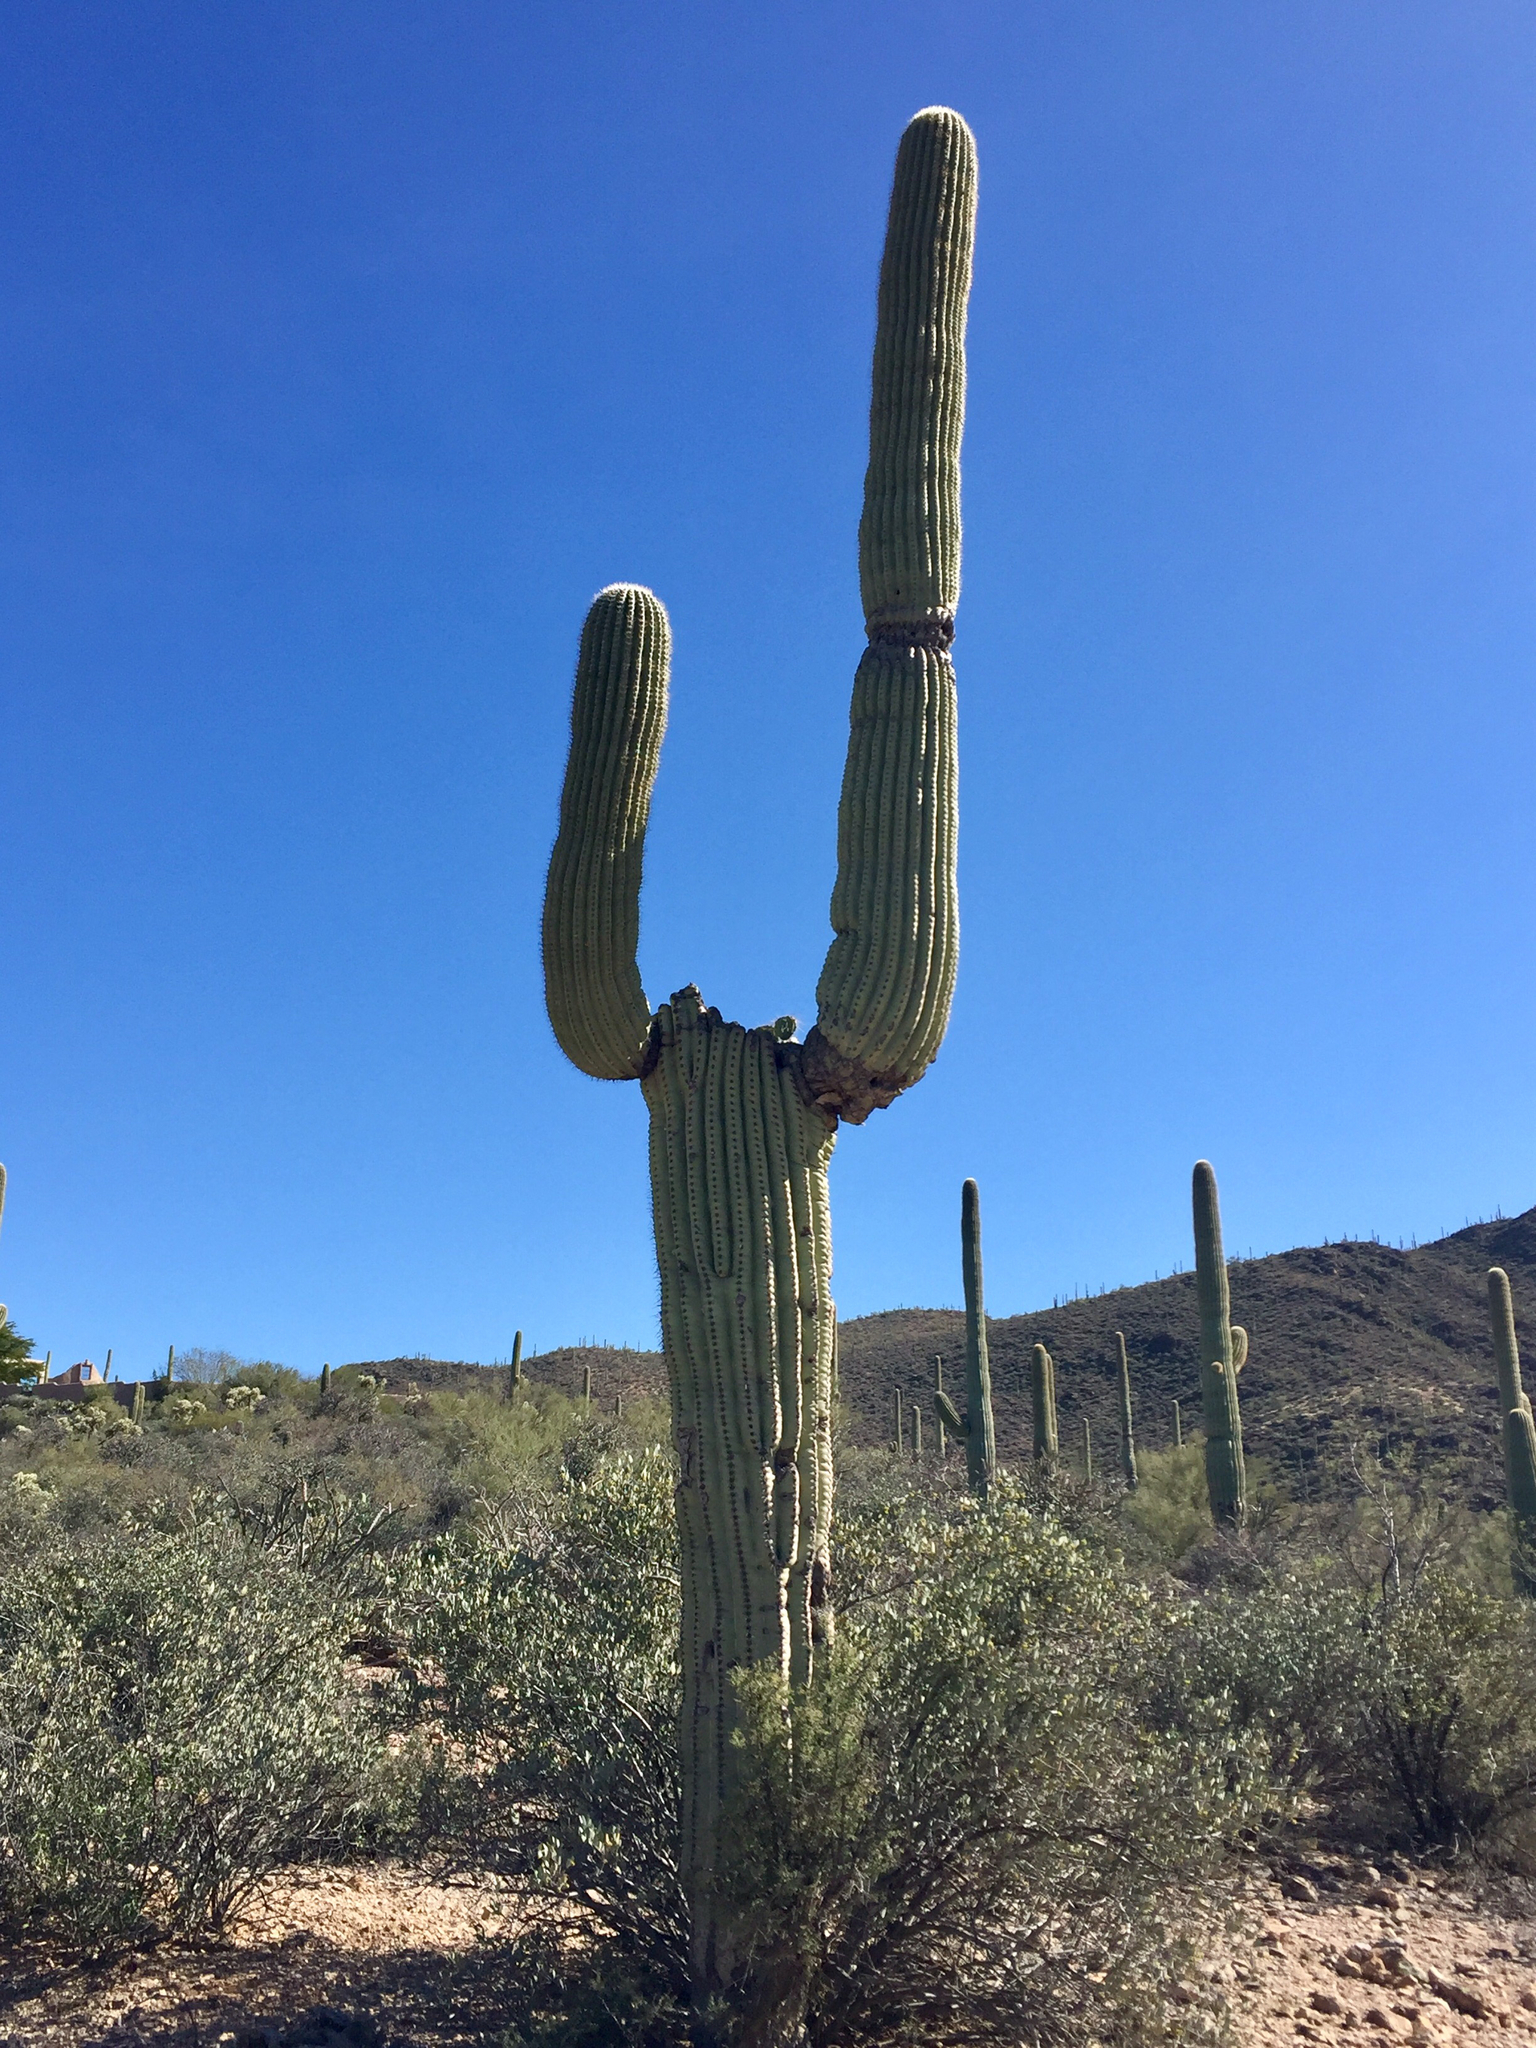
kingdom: Plantae
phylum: Tracheophyta
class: Magnoliopsida
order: Caryophyllales
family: Cactaceae
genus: Carnegiea
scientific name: Carnegiea gigantea
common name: Saguaro
